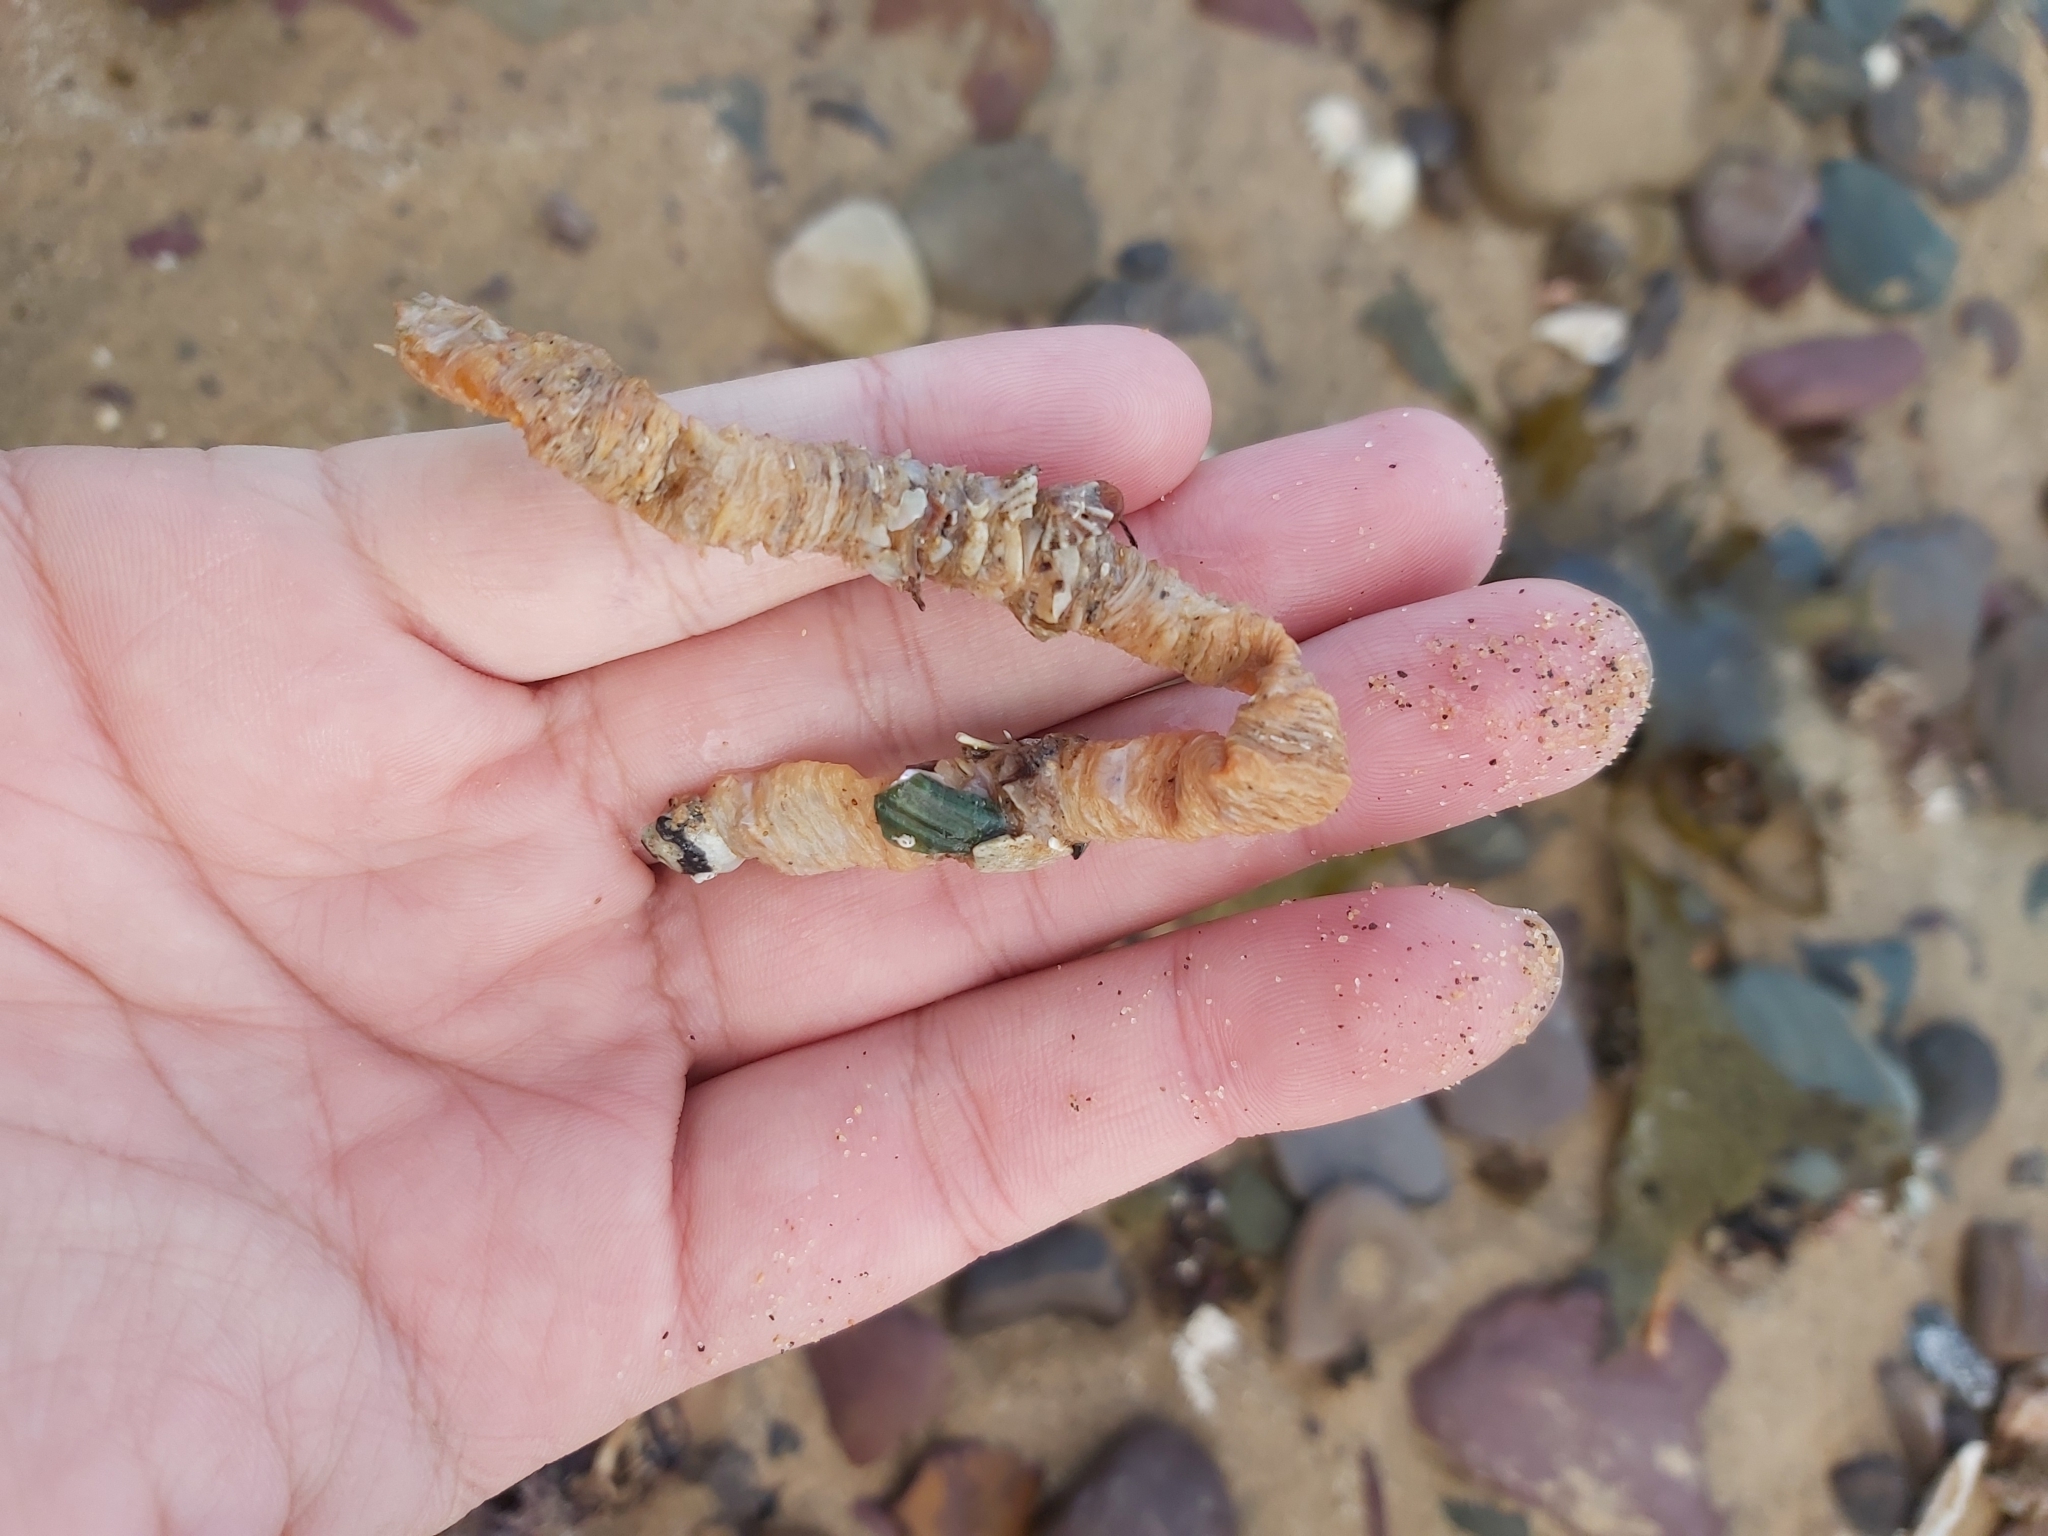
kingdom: Animalia
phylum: Annelida
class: Polychaeta
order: Eunicida
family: Onuphidae
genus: Diopatra
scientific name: Diopatra dentata
